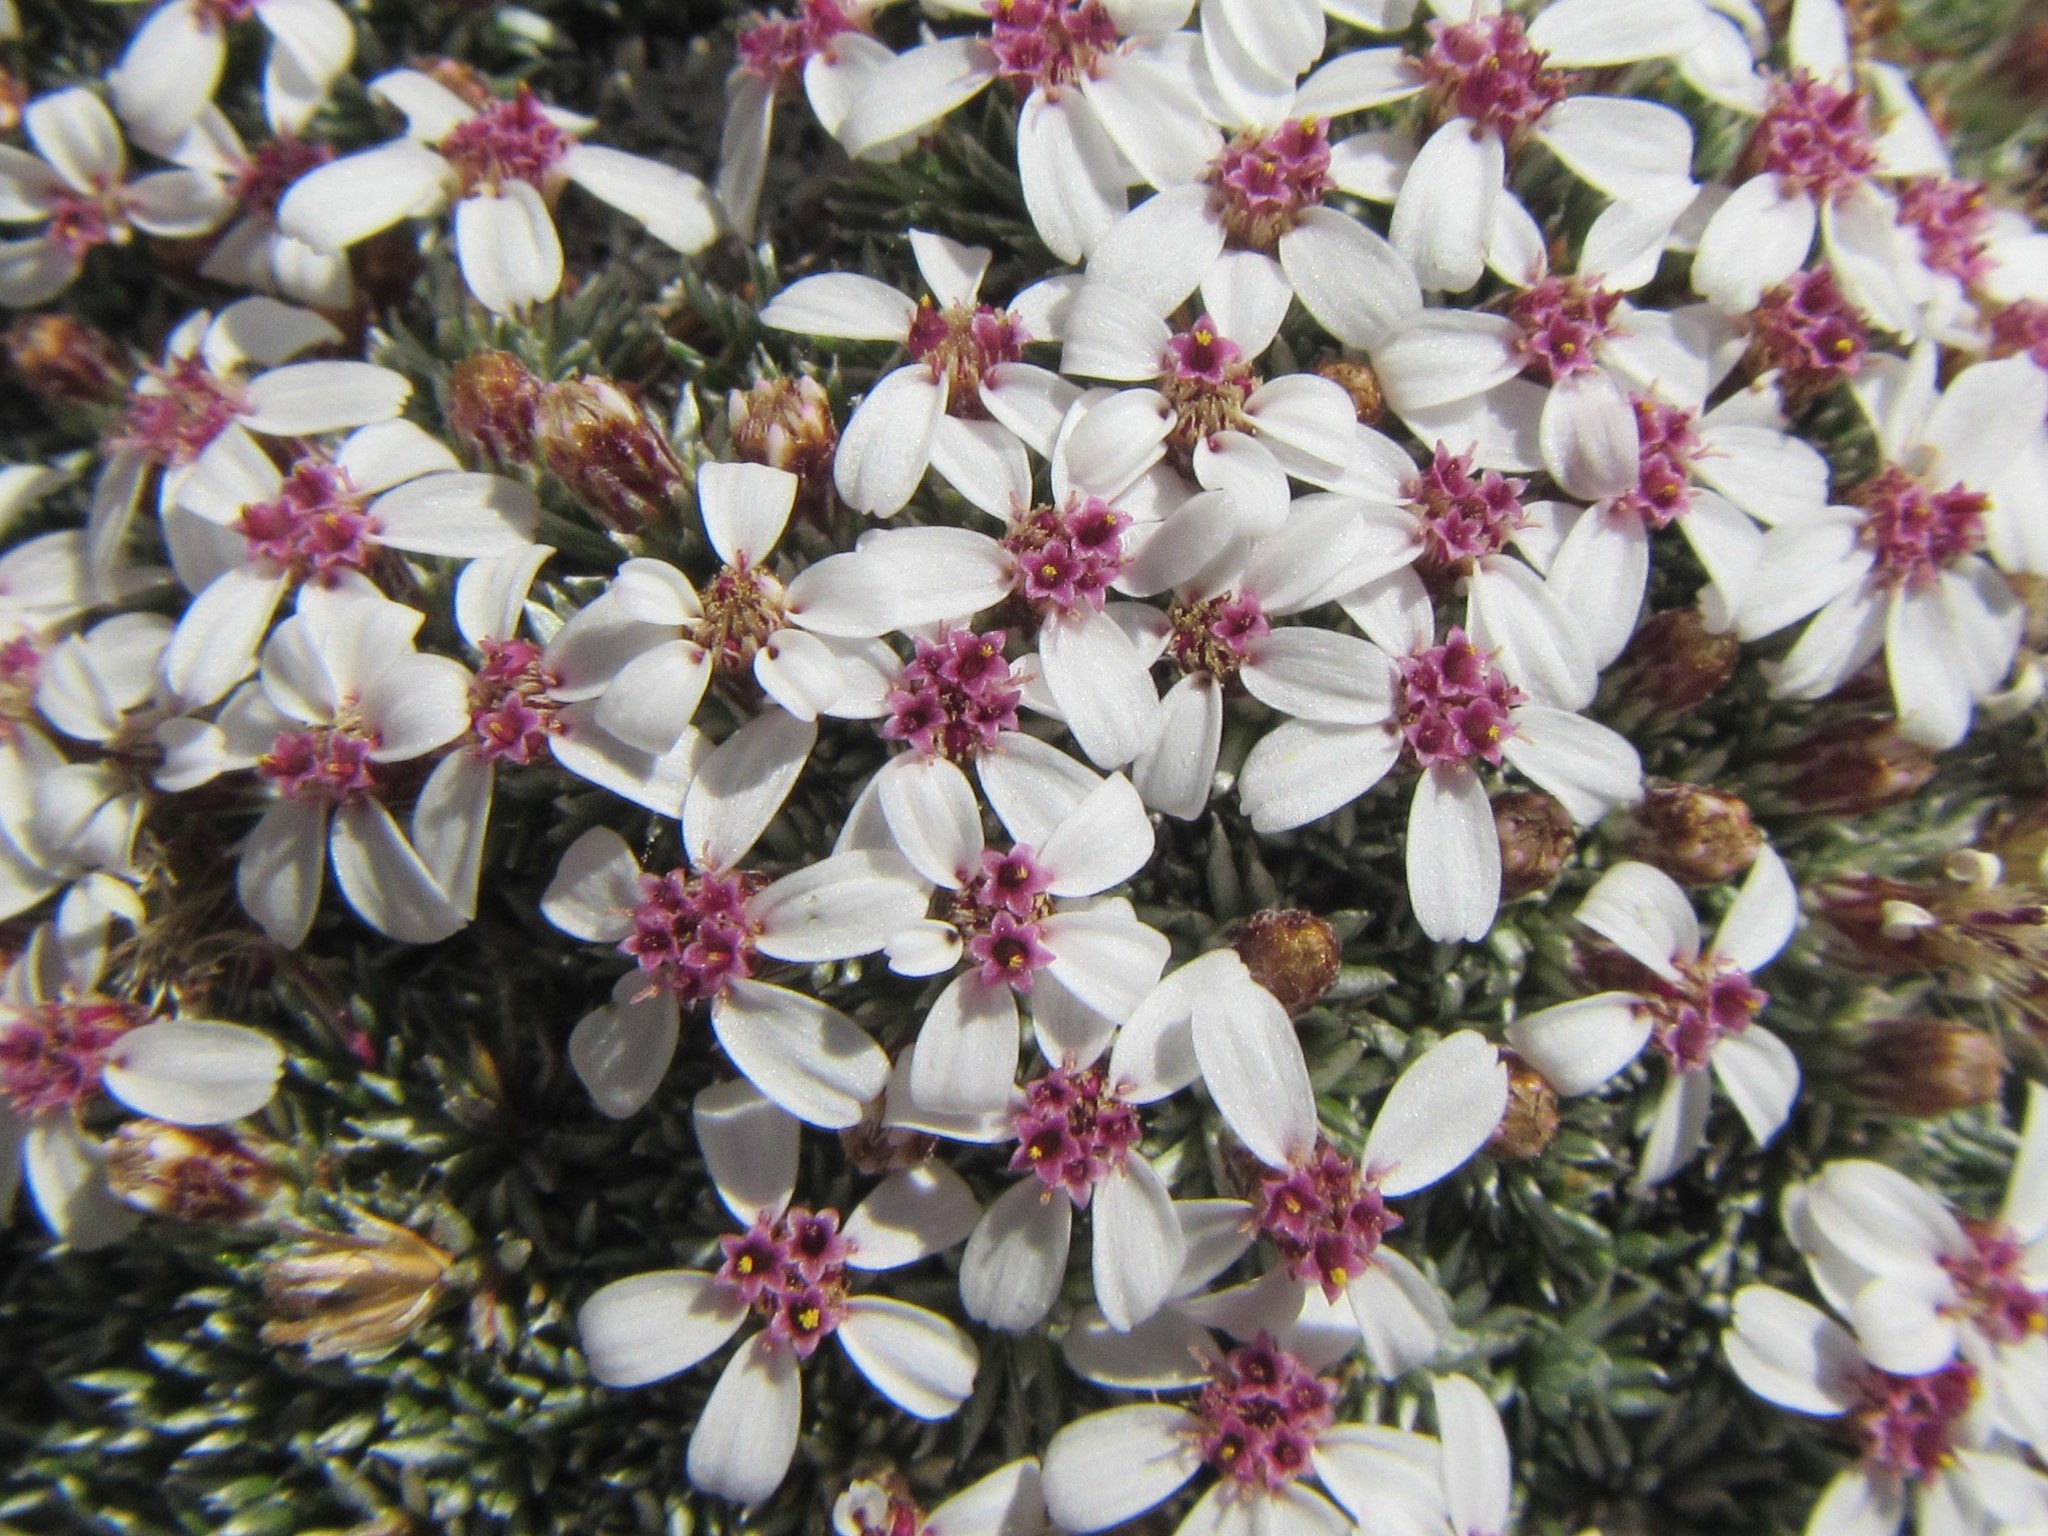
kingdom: Plantae
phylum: Tracheophyta
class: Magnoliopsida
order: Asterales
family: Asteraceae
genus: Muscosomorphe
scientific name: Muscosomorphe aretioides
